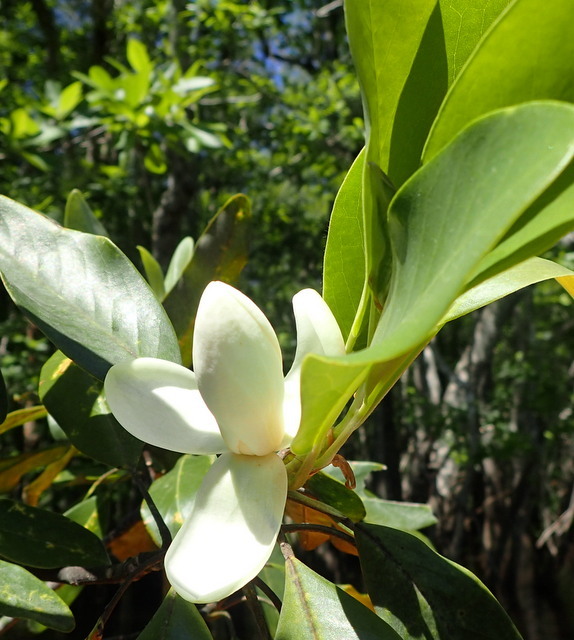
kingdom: Plantae
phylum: Tracheophyta
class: Magnoliopsida
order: Magnoliales
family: Magnoliaceae
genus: Magnolia
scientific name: Magnolia virginiana
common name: Swamp bay
